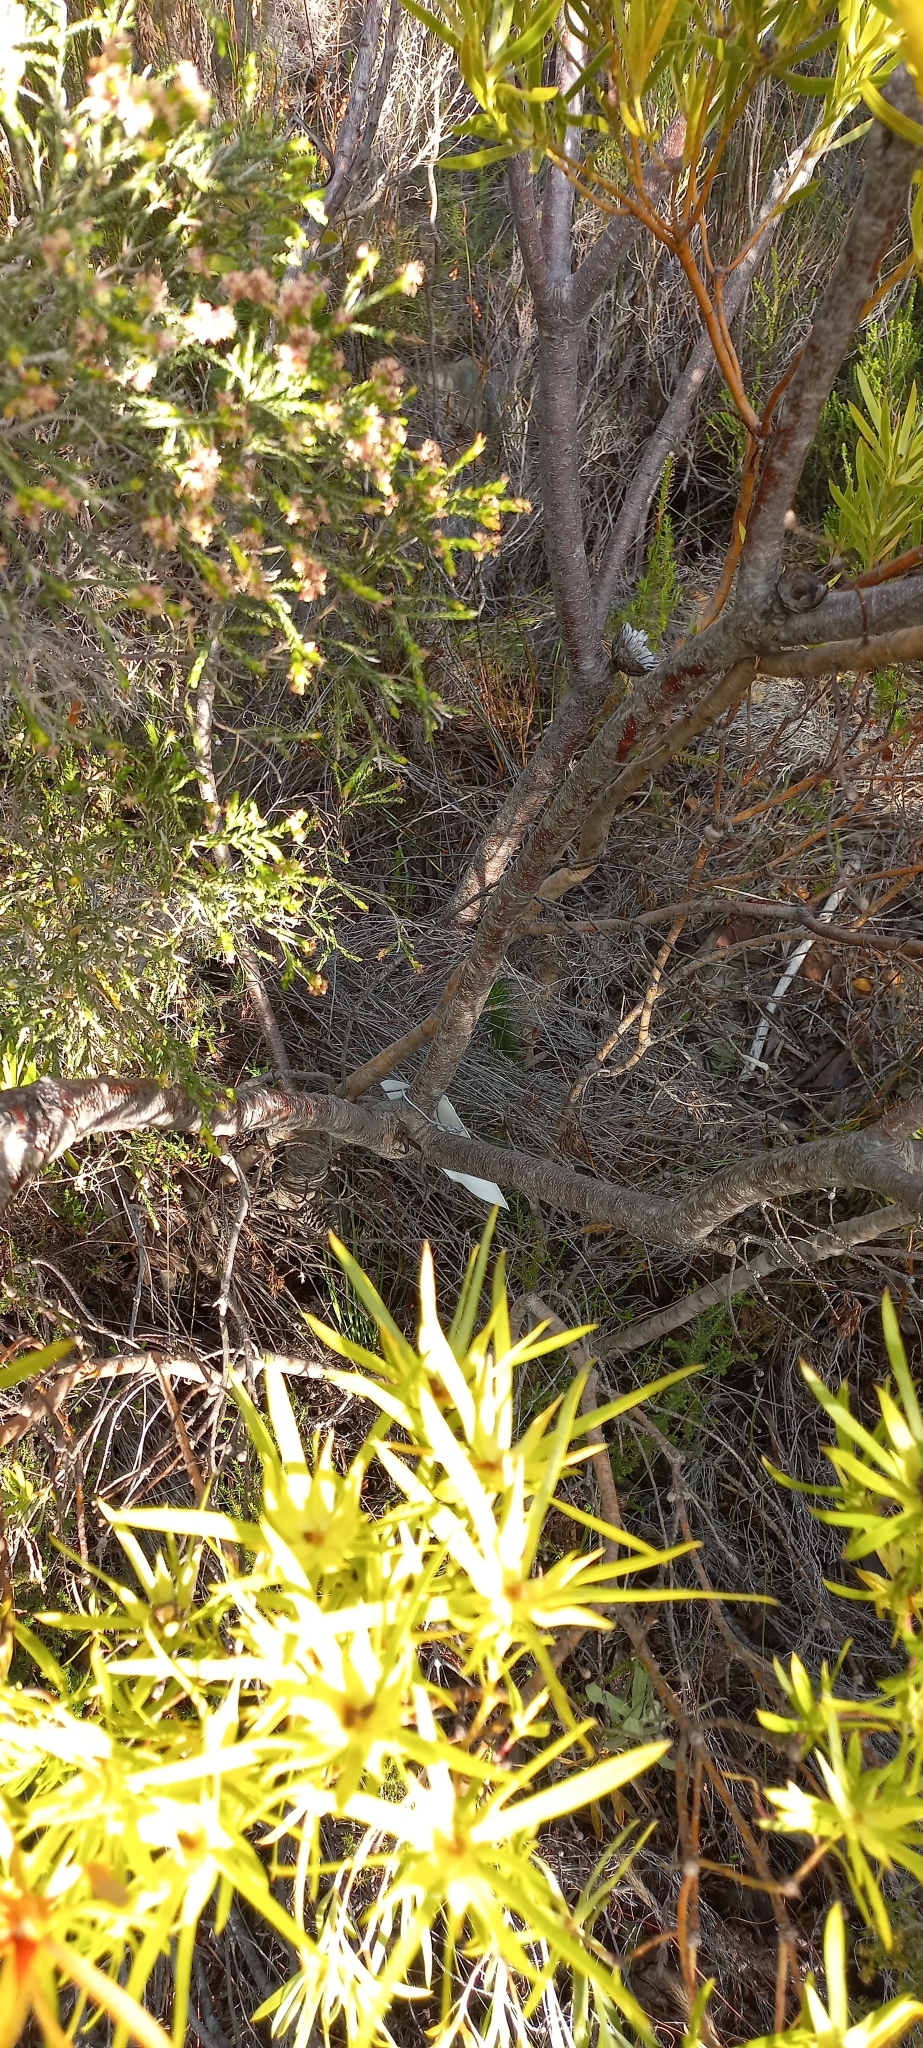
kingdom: Plantae
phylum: Tracheophyta
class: Magnoliopsida
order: Proteales
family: Proteaceae
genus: Protea
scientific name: Protea lepidocarpodendron
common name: Black-bearded protea
